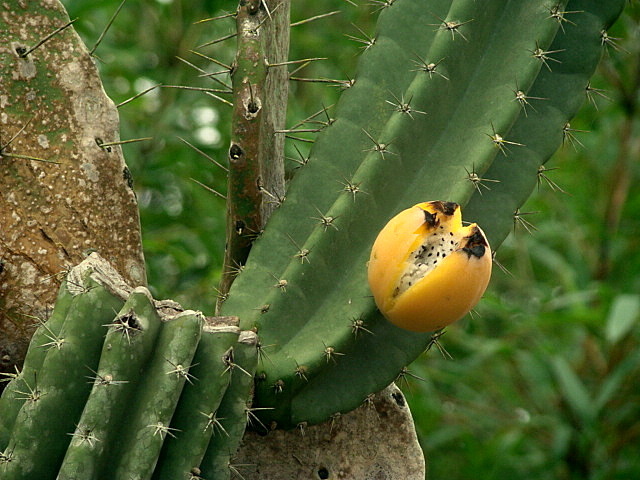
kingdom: Plantae
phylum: Tracheophyta
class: Magnoliopsida
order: Caryophyllales
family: Cactaceae
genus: Cereus
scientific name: Cereus hildmannianus
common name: Hedge cactus
